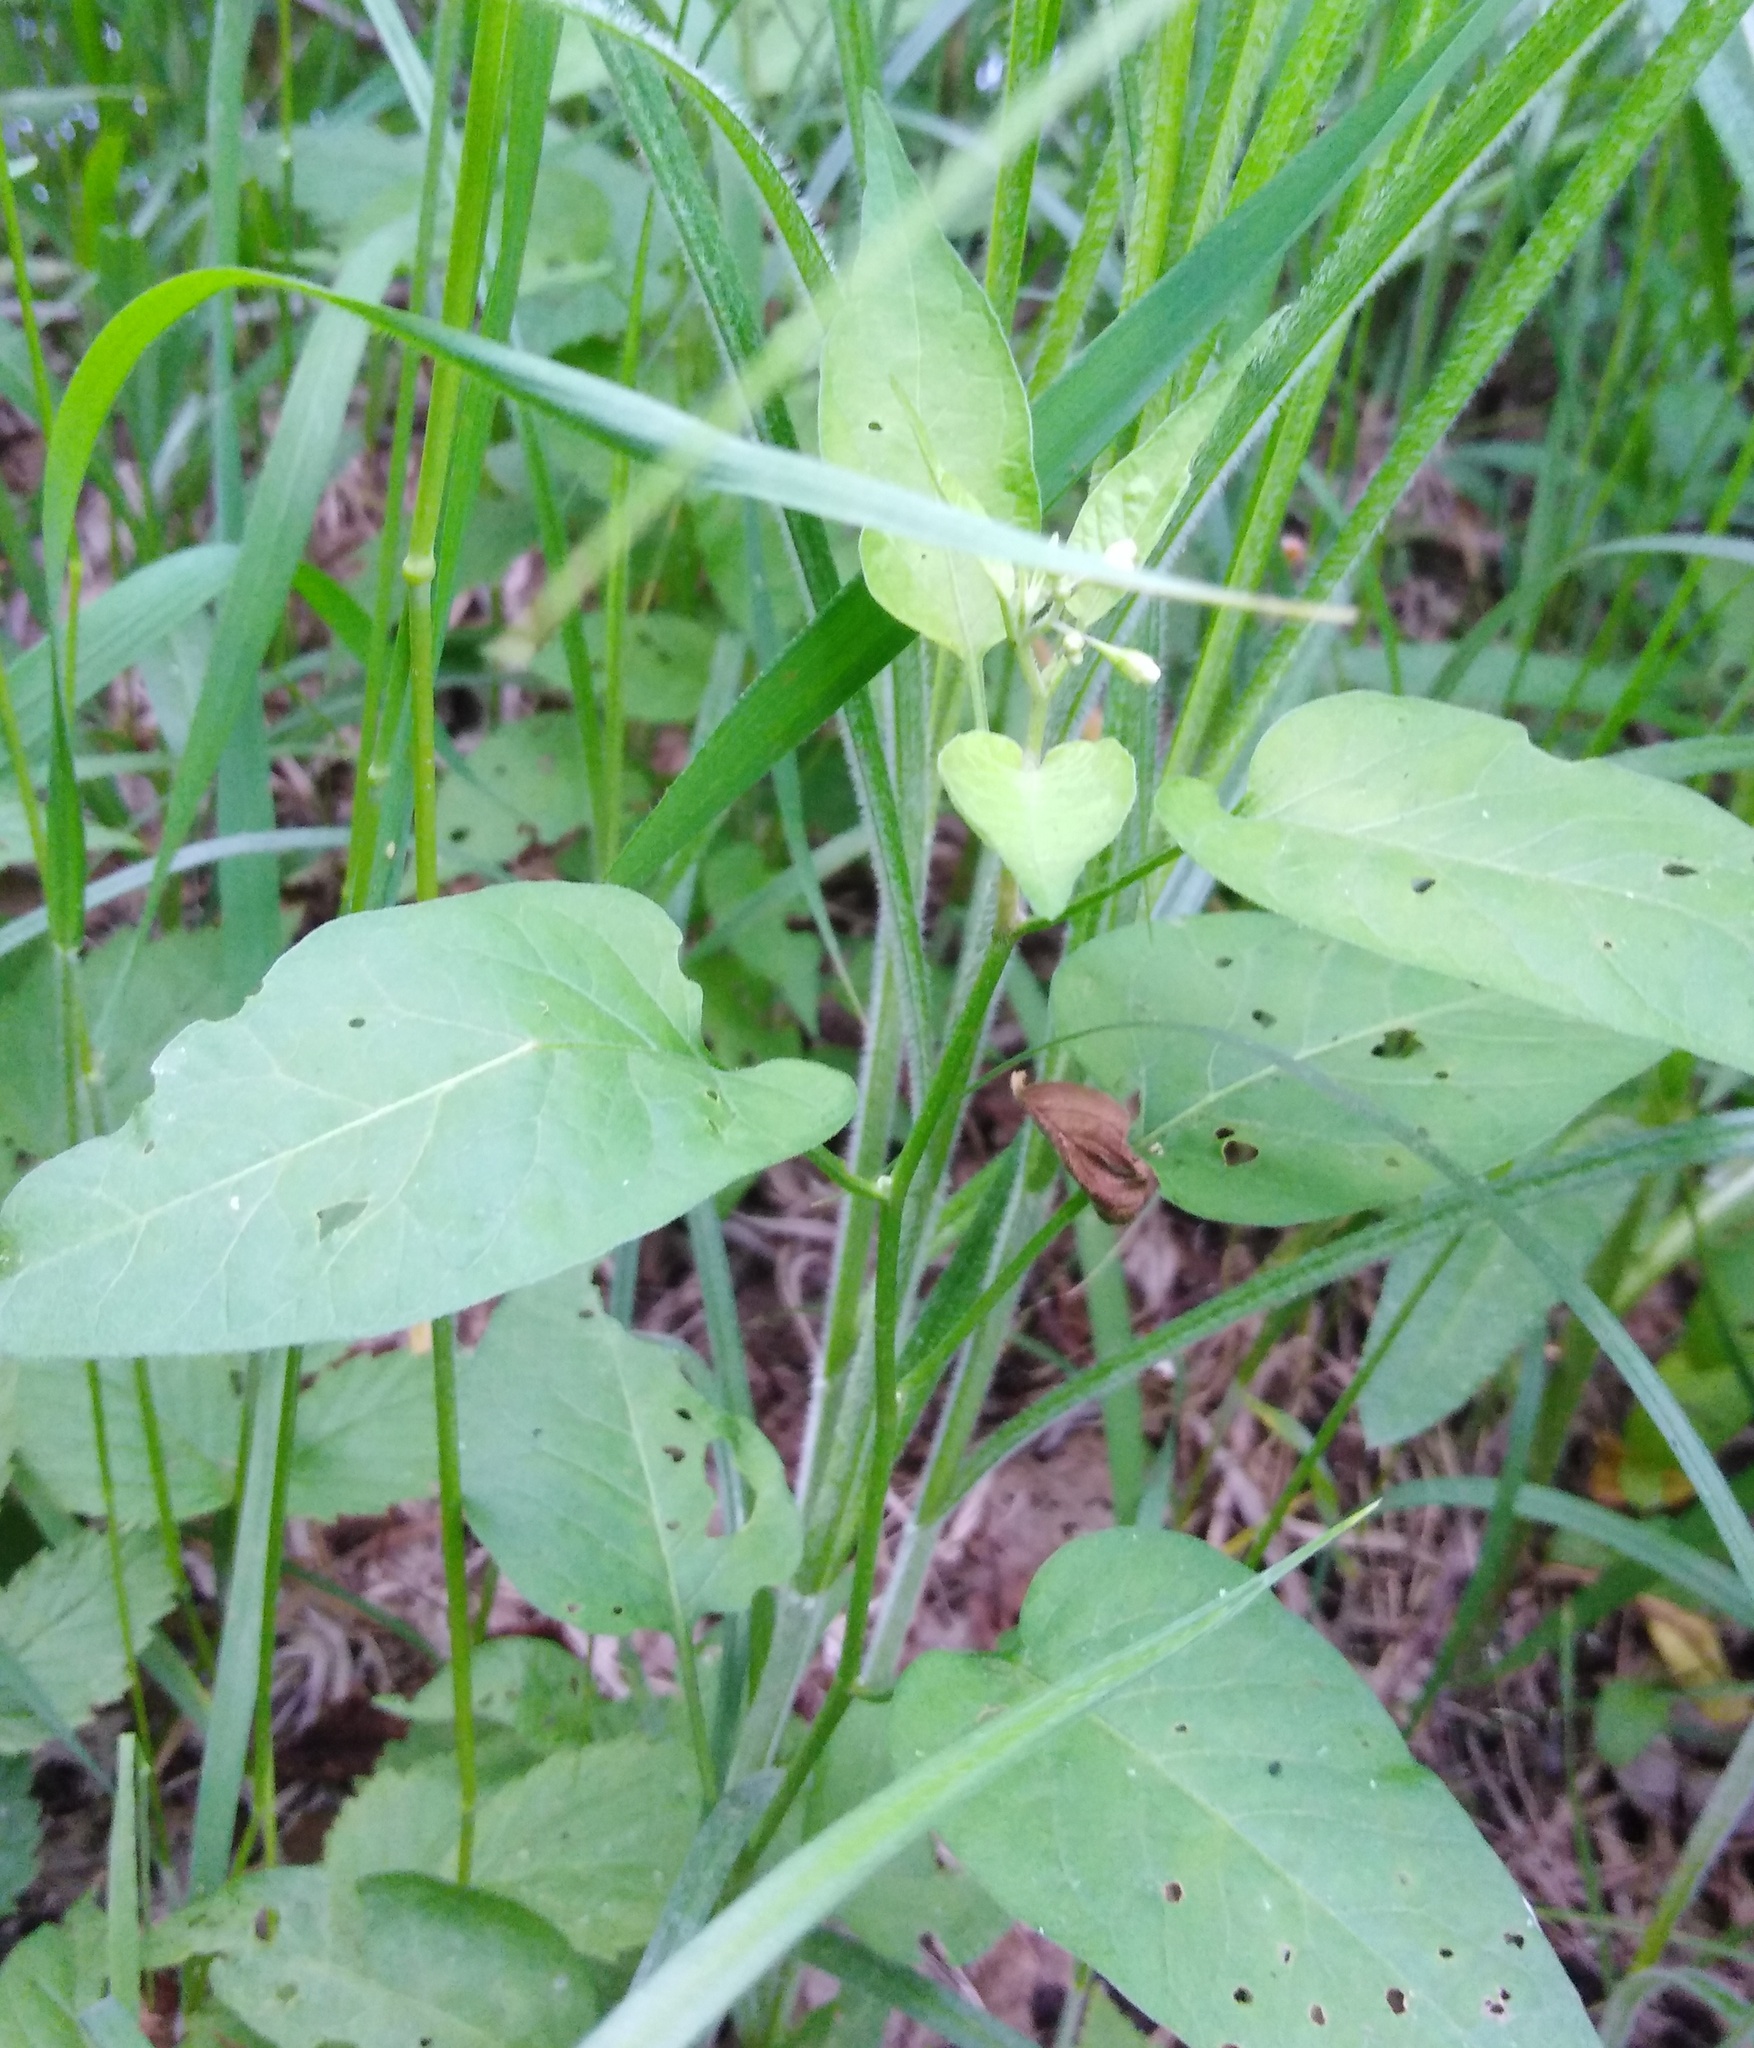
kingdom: Plantae
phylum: Tracheophyta
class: Magnoliopsida
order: Solanales
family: Solanaceae
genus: Solanum
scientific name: Solanum dulcamara
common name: Climbing nightshade
